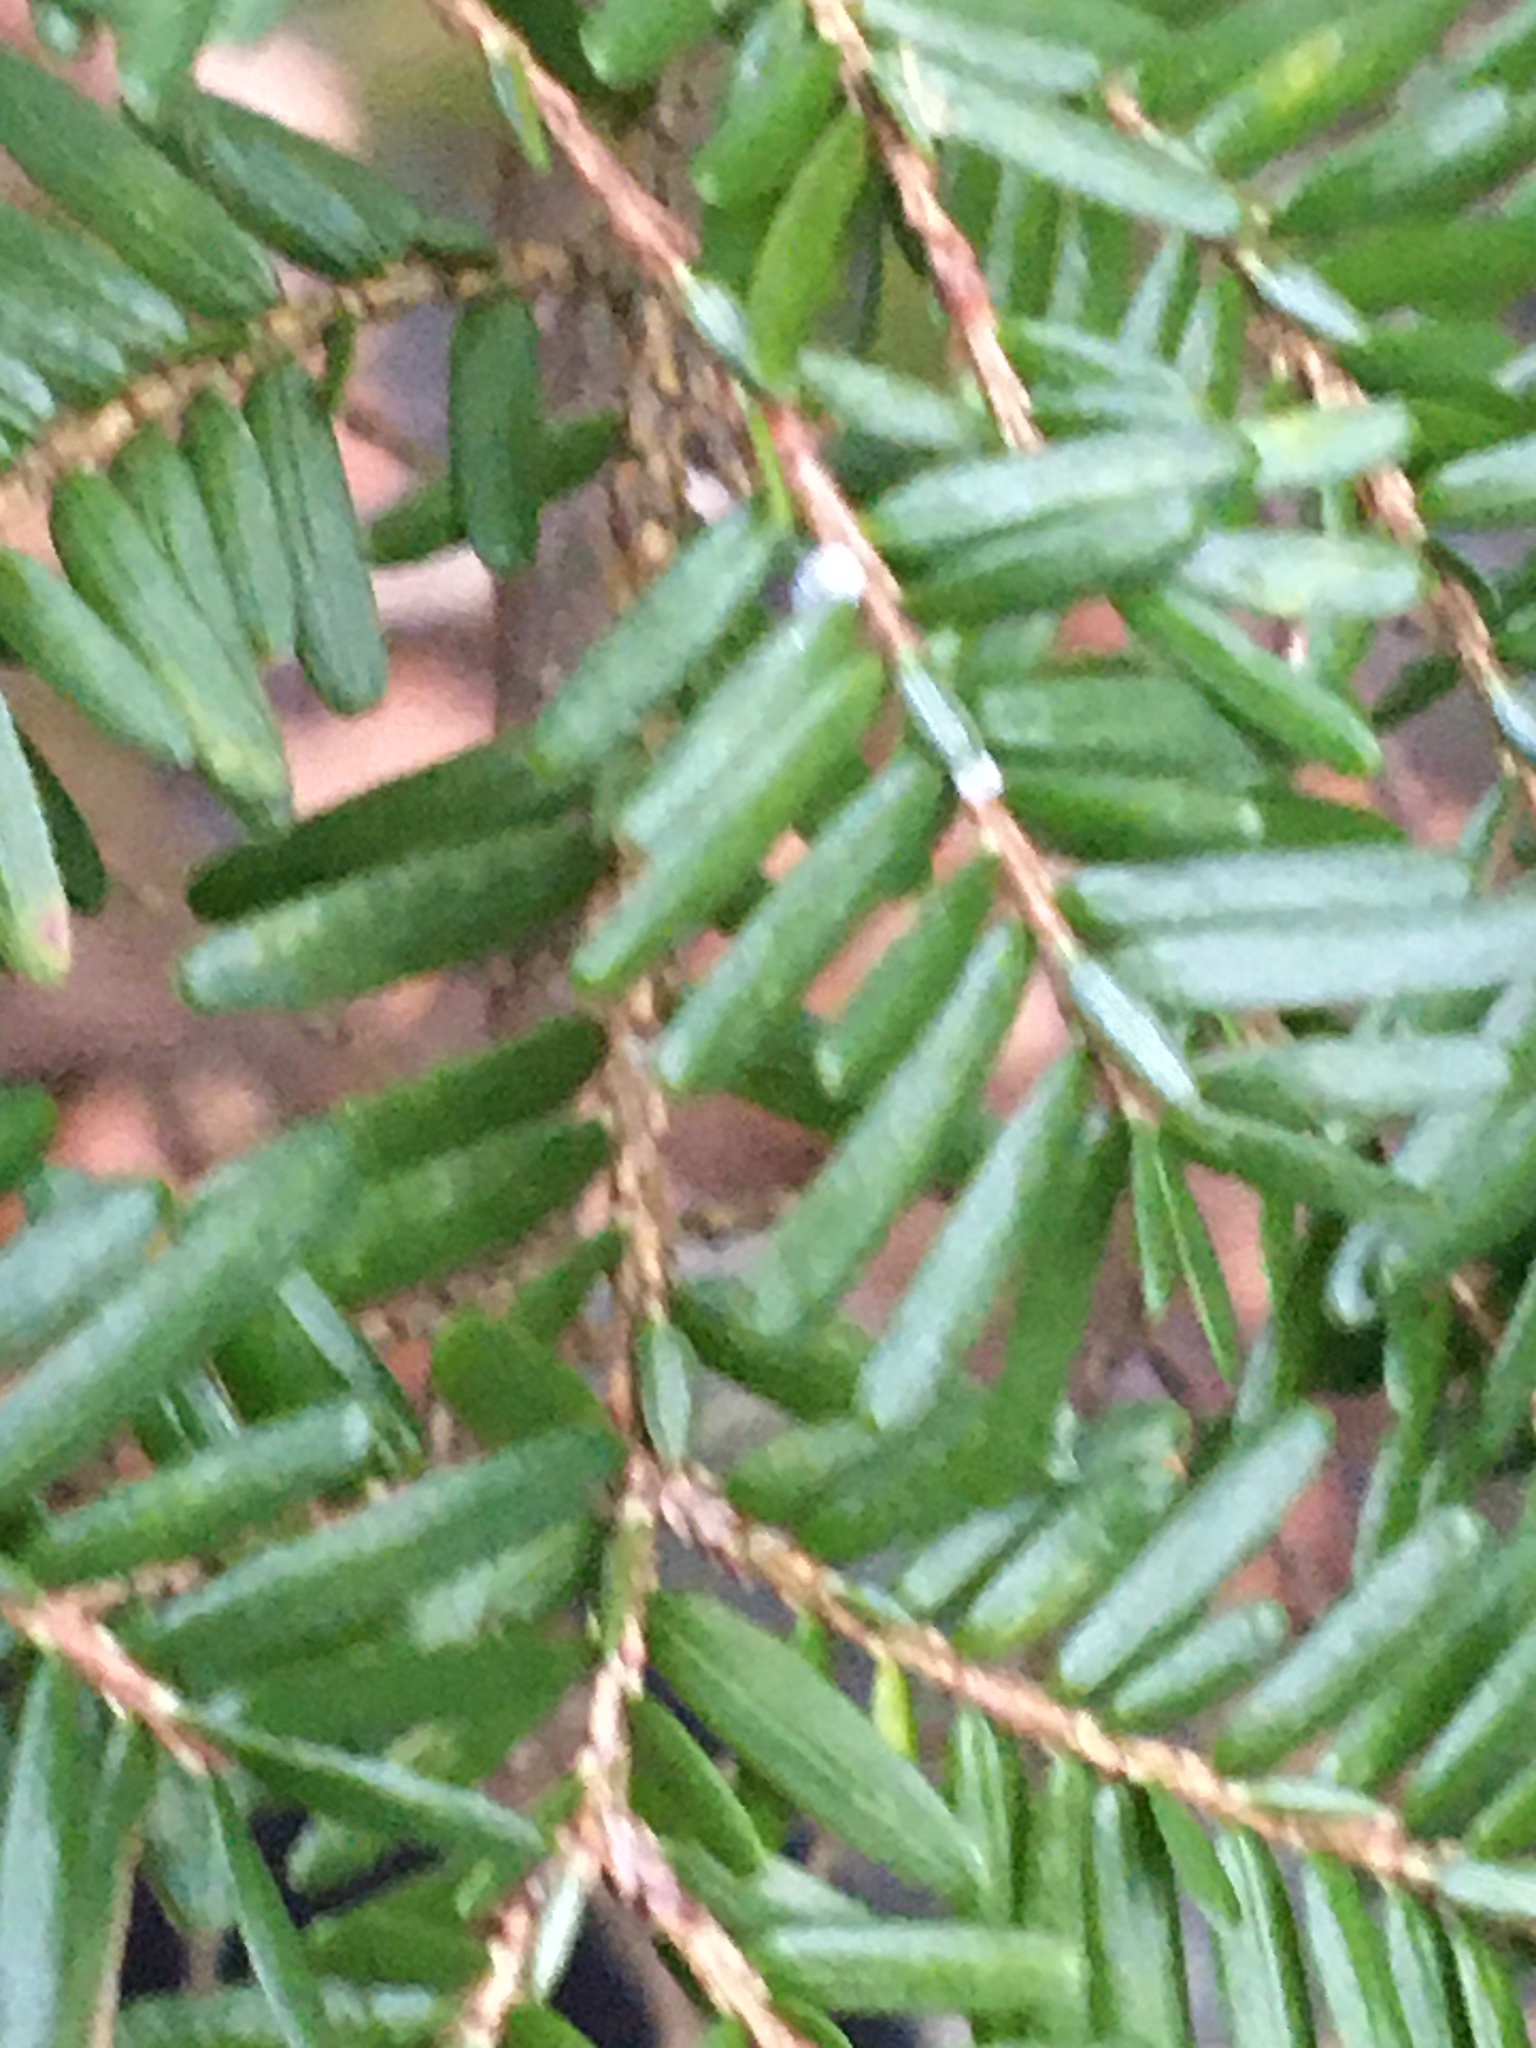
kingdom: Animalia
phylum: Arthropoda
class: Insecta
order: Hemiptera
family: Adelgidae
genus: Adelges
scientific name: Adelges tsugae
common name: Hemlock woolly adelgid
